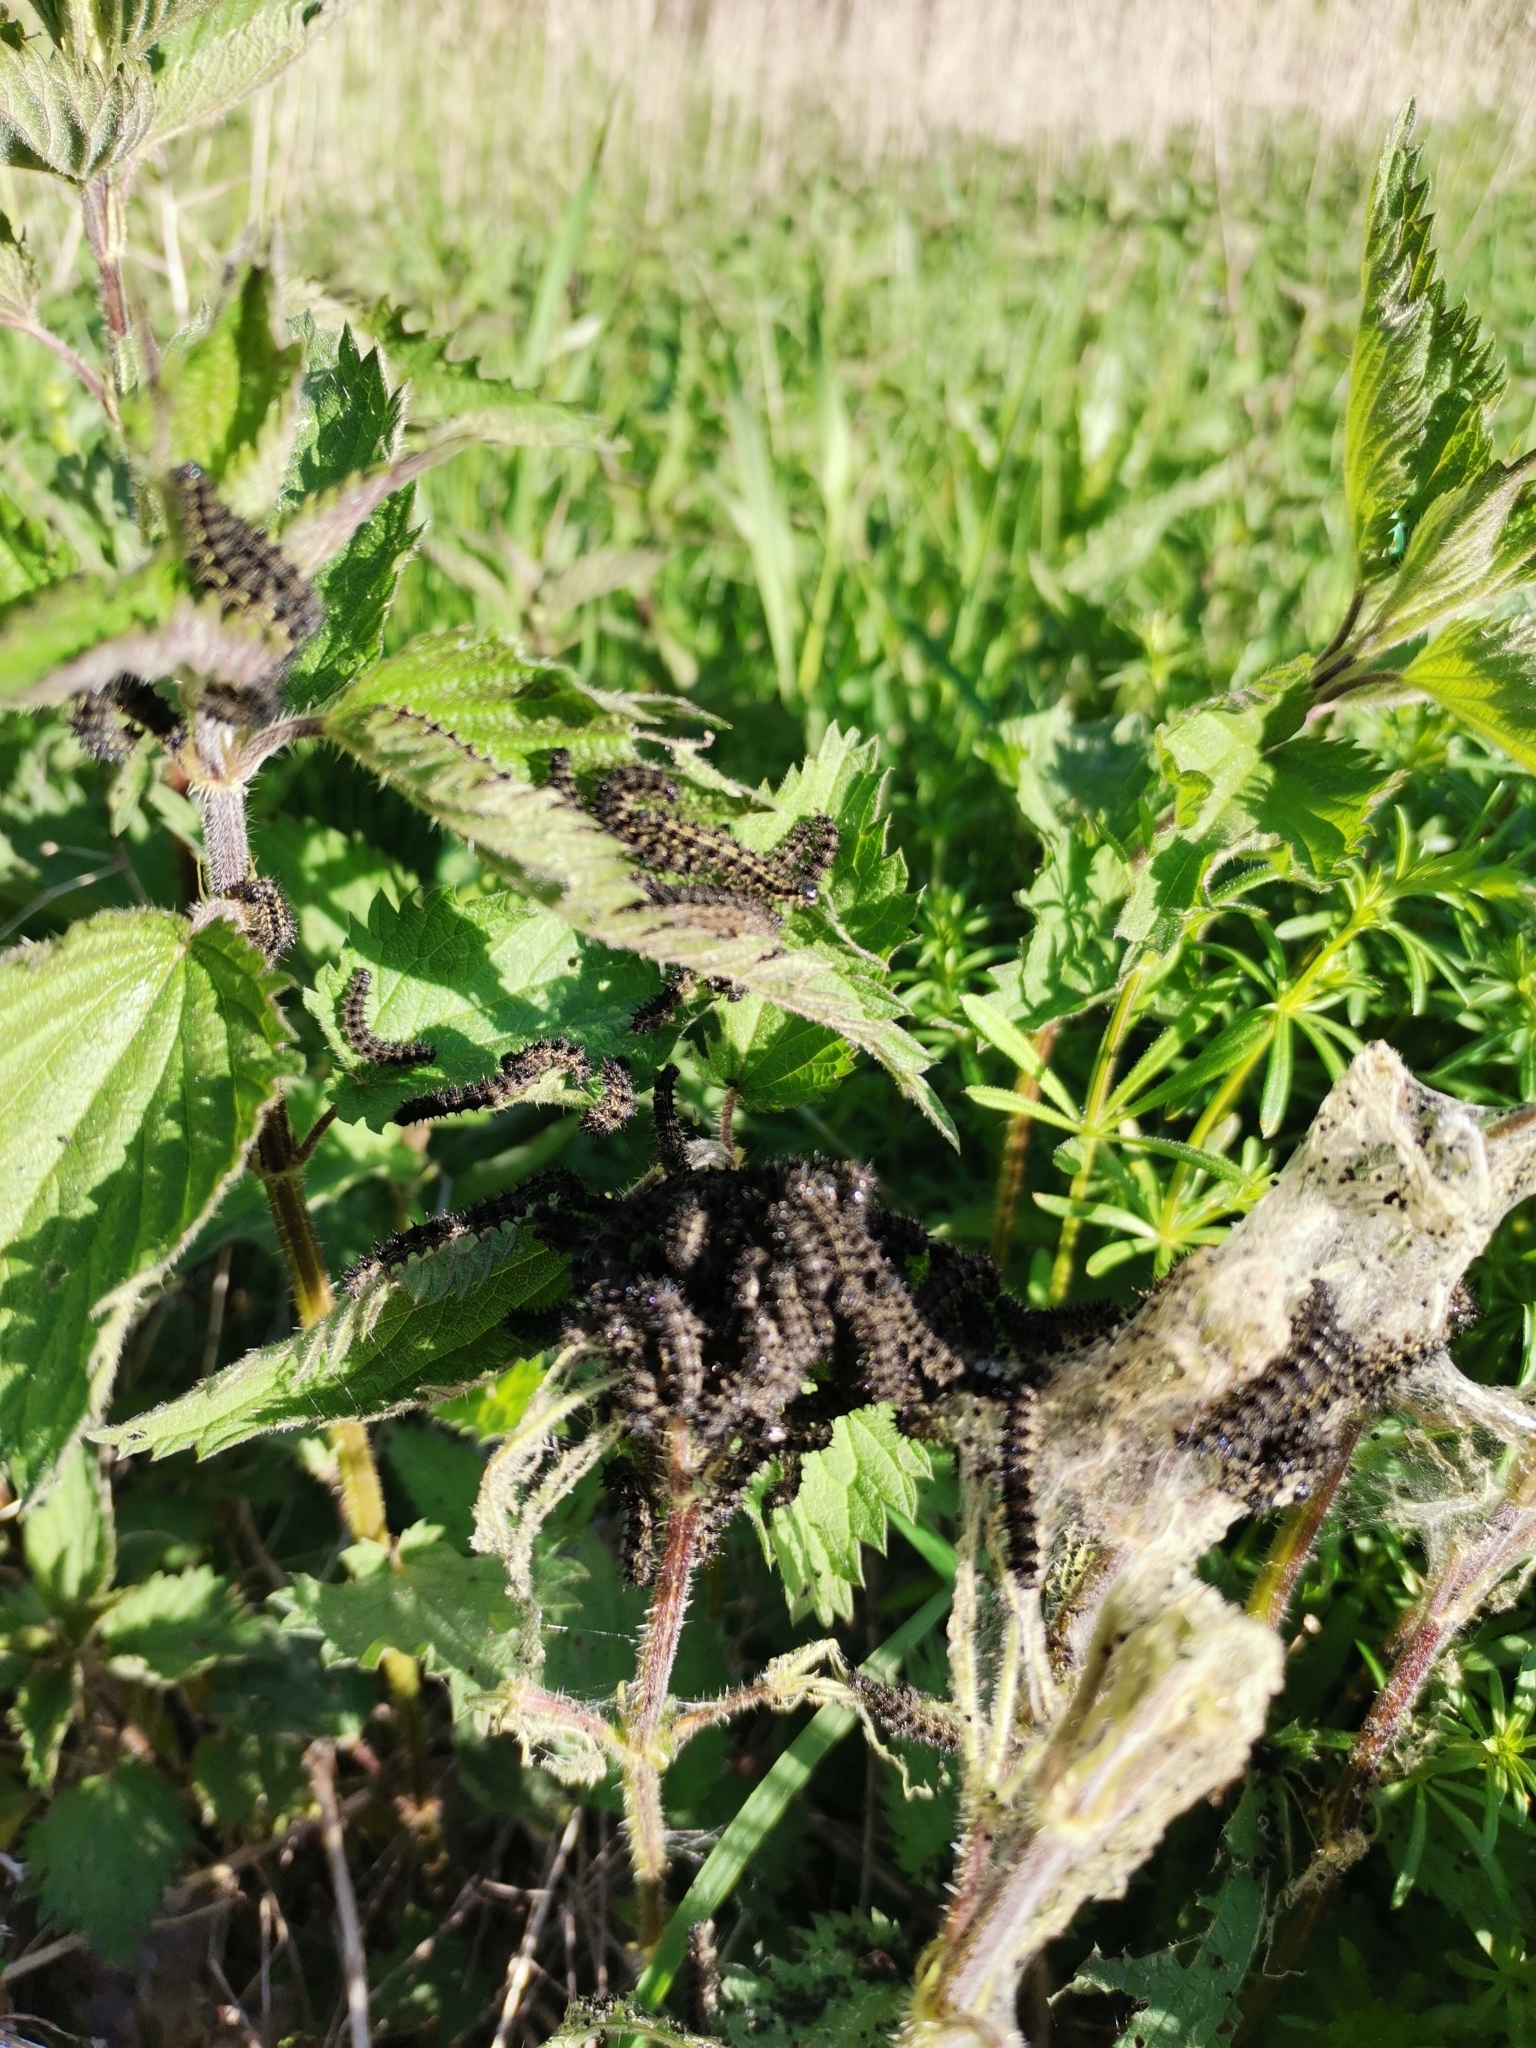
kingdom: Animalia
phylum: Arthropoda
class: Insecta
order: Lepidoptera
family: Nymphalidae
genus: Aglais
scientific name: Aglais urticae
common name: Small tortoiseshell
